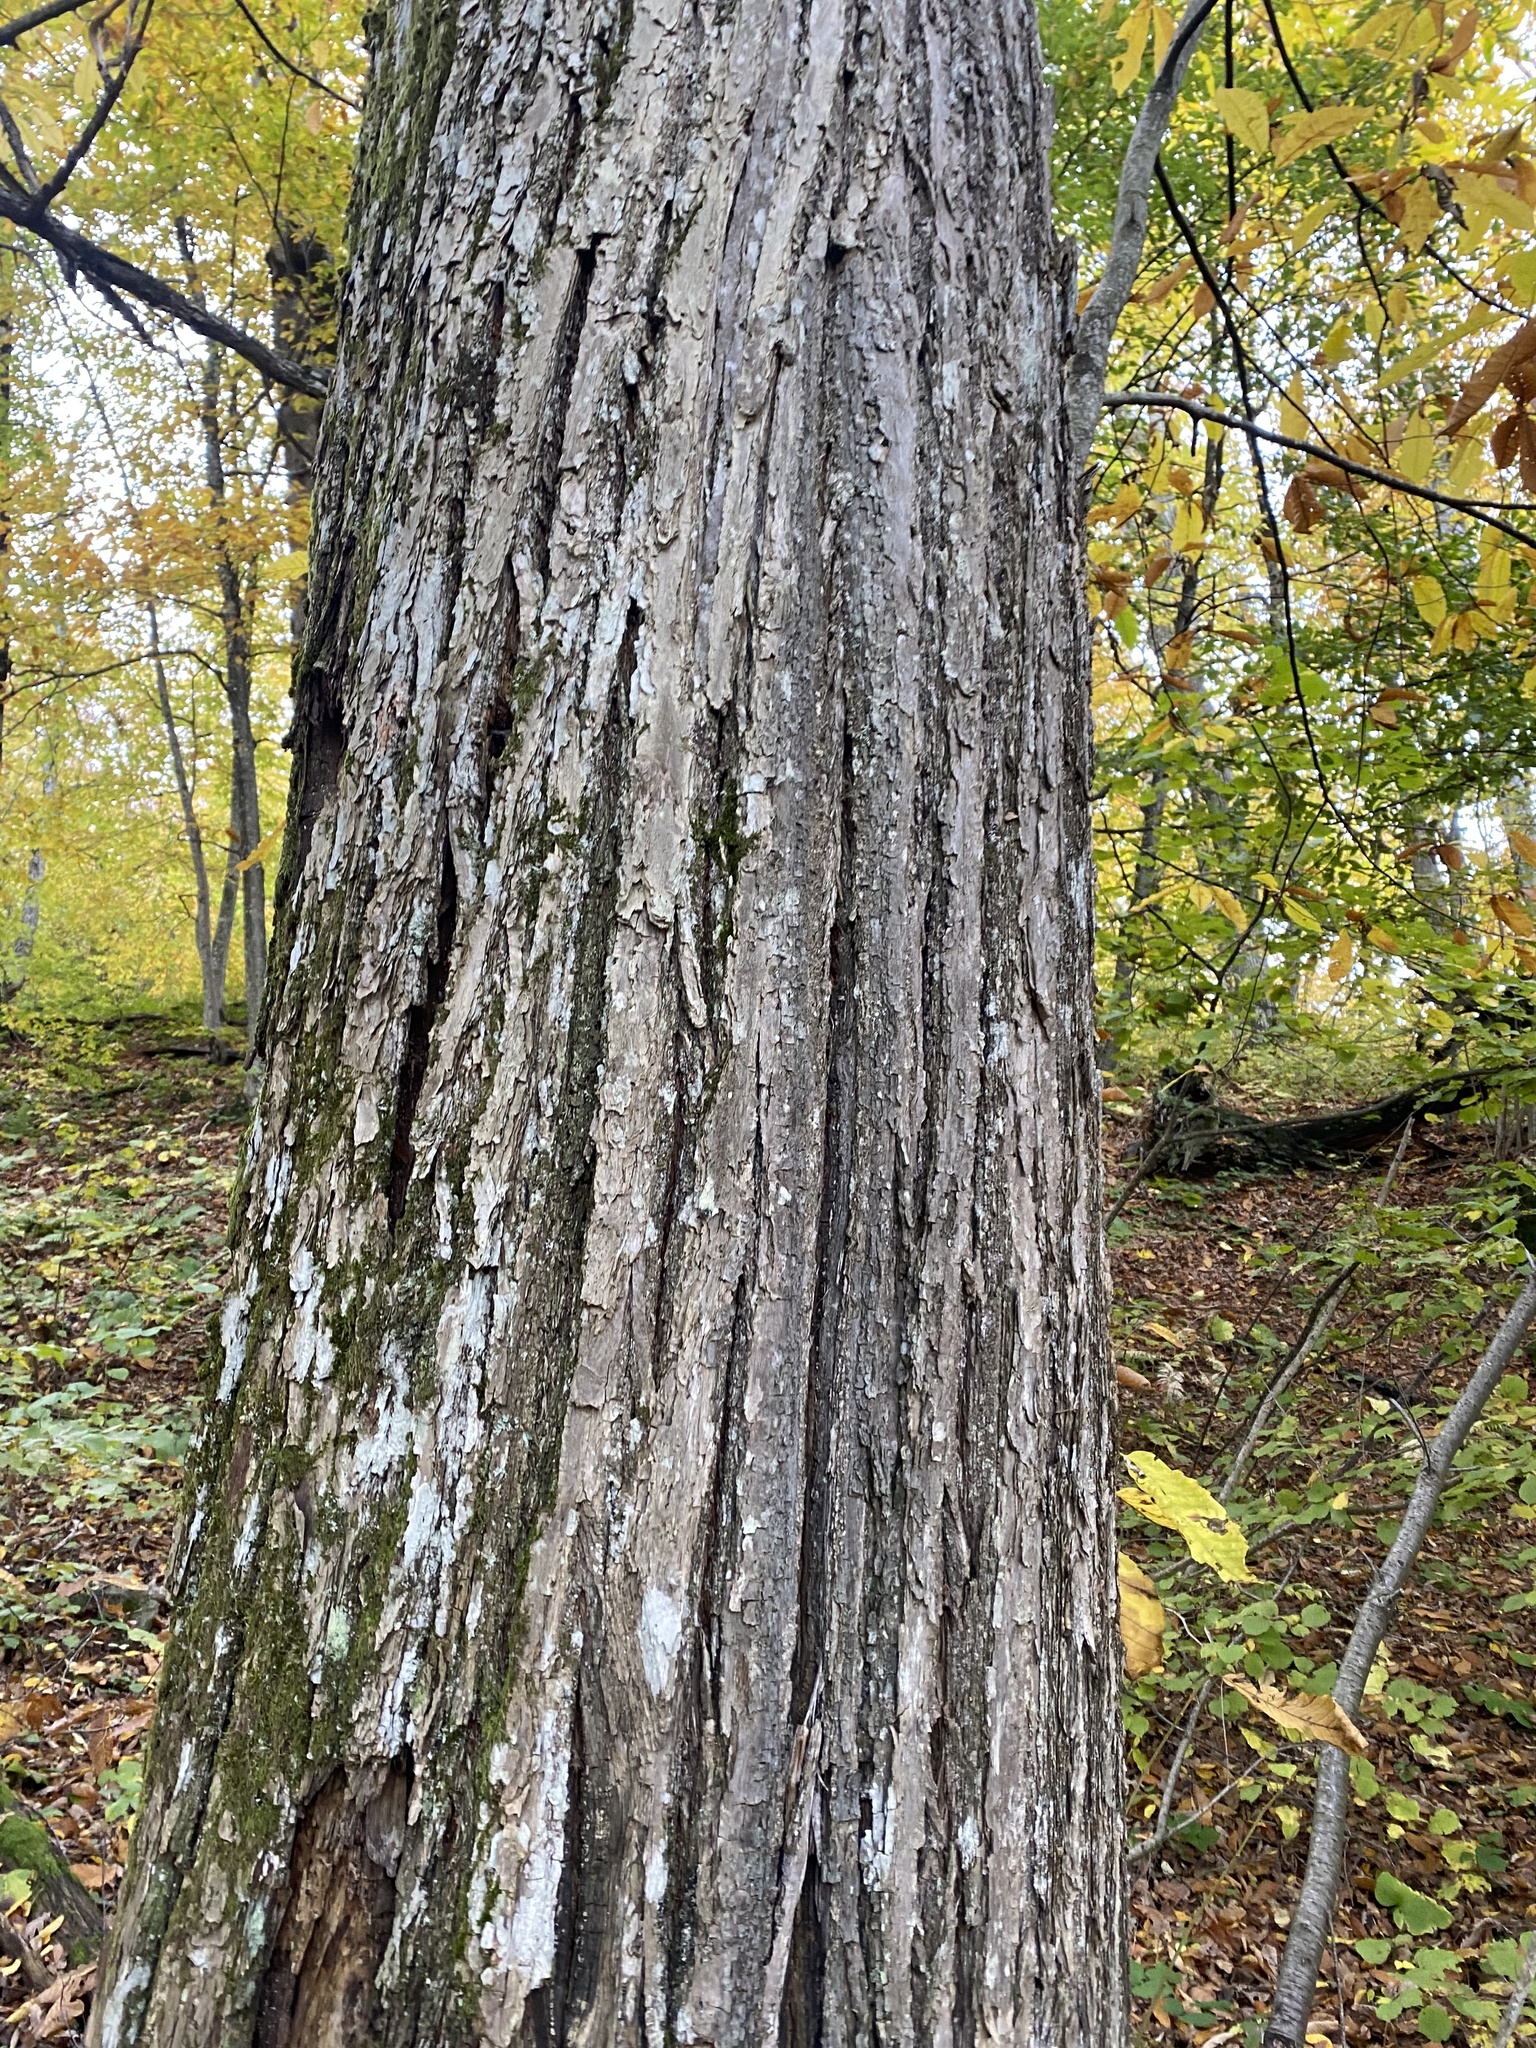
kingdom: Plantae
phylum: Tracheophyta
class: Magnoliopsida
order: Fagales
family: Betulaceae
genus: Carpinus
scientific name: Carpinus betulus
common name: Hornbeam
